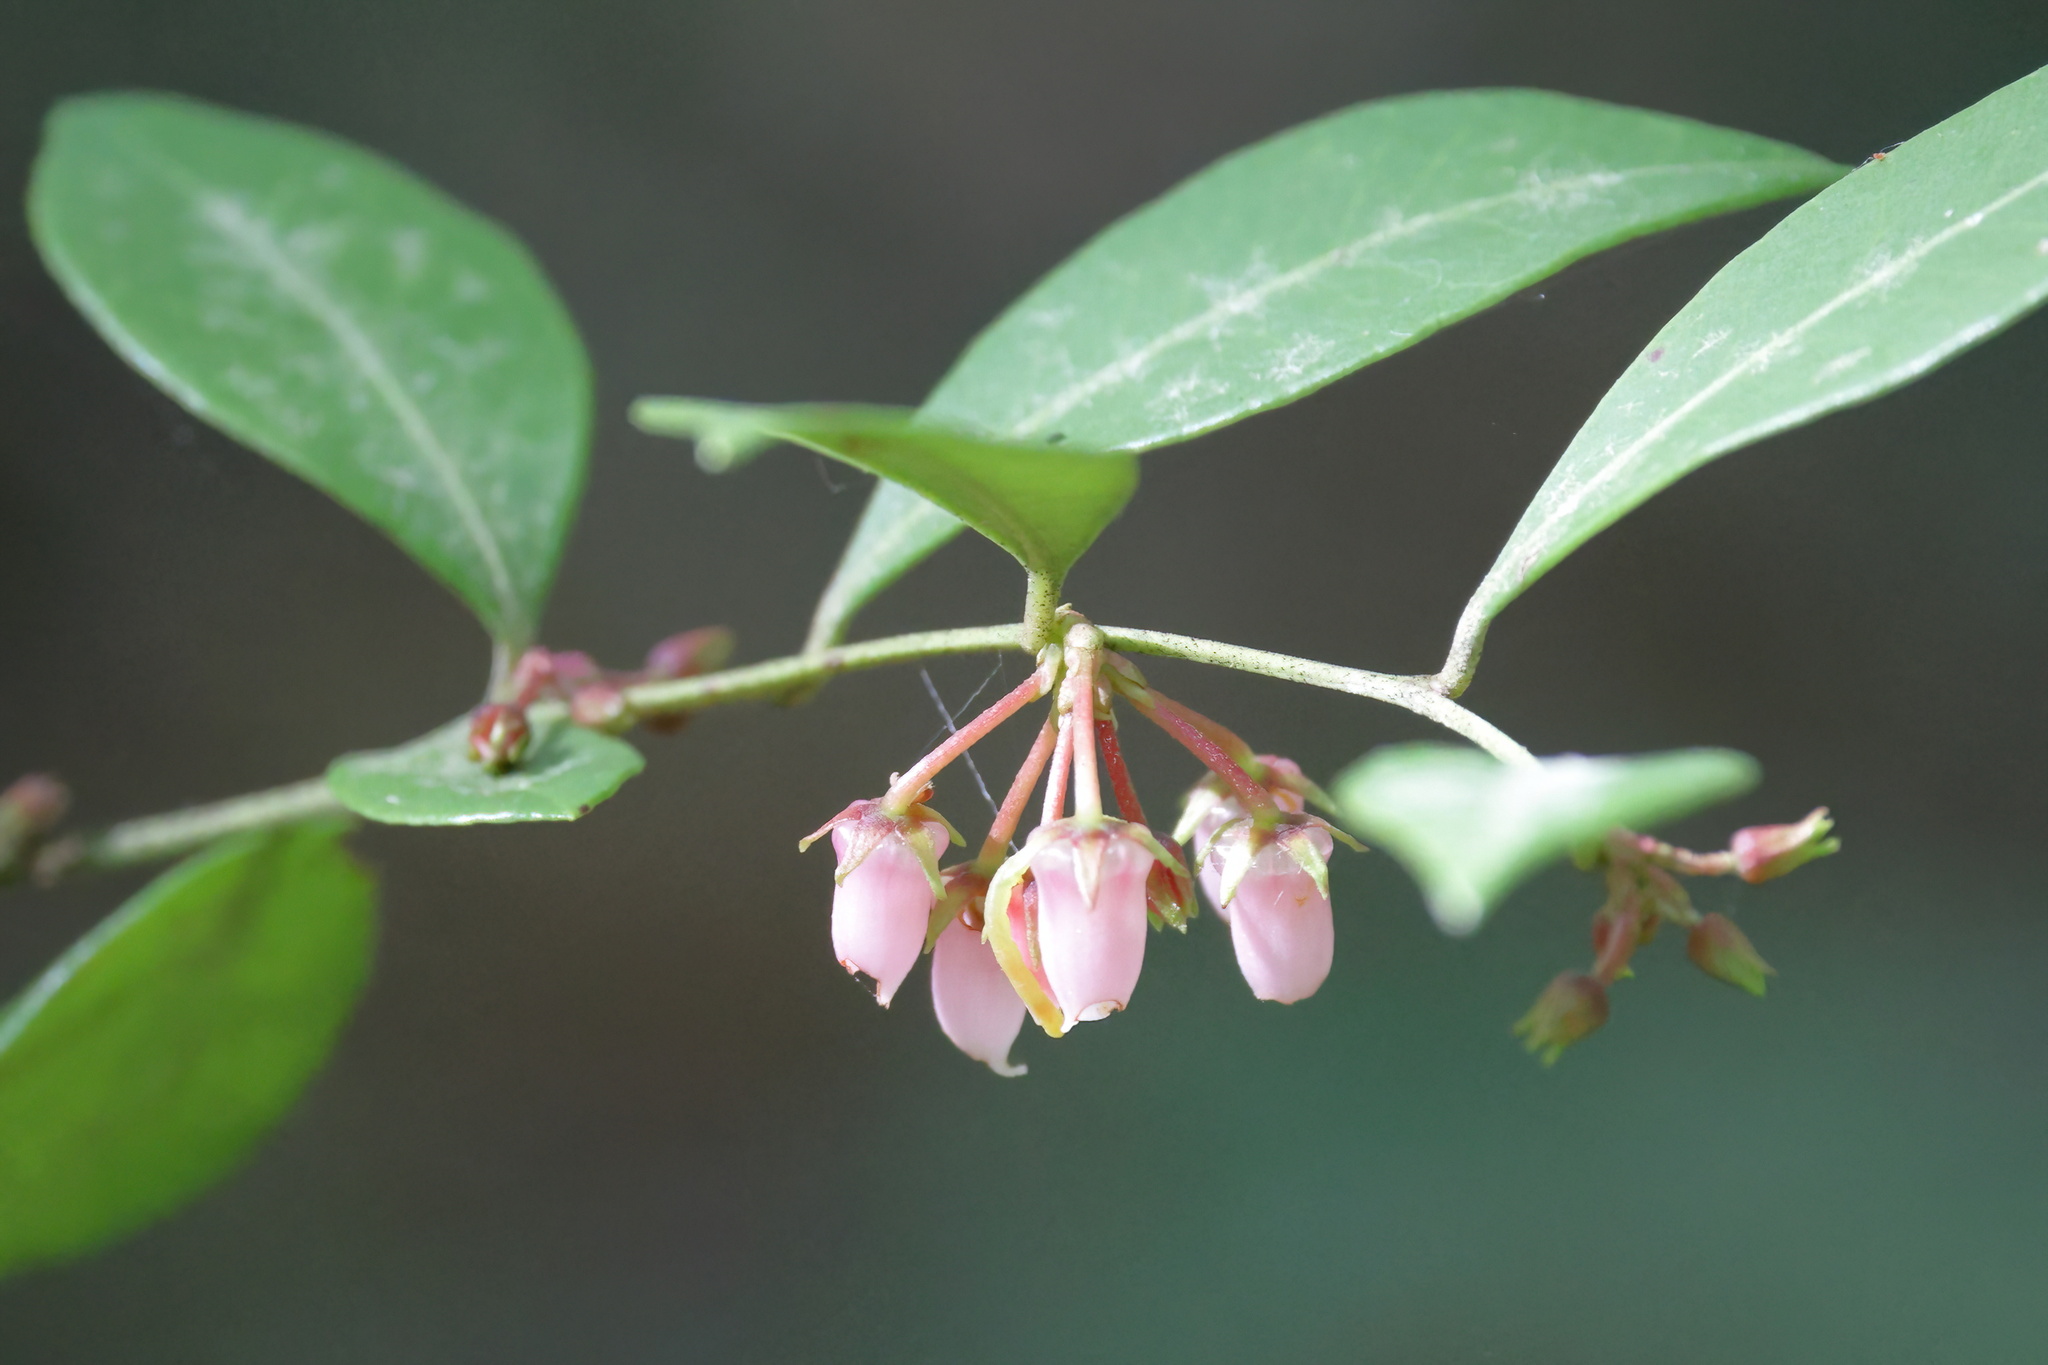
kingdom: Plantae
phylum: Tracheophyta
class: Magnoliopsida
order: Ericales
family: Ericaceae
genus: Lyonia
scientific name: Lyonia lucida
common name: Fetterbush
